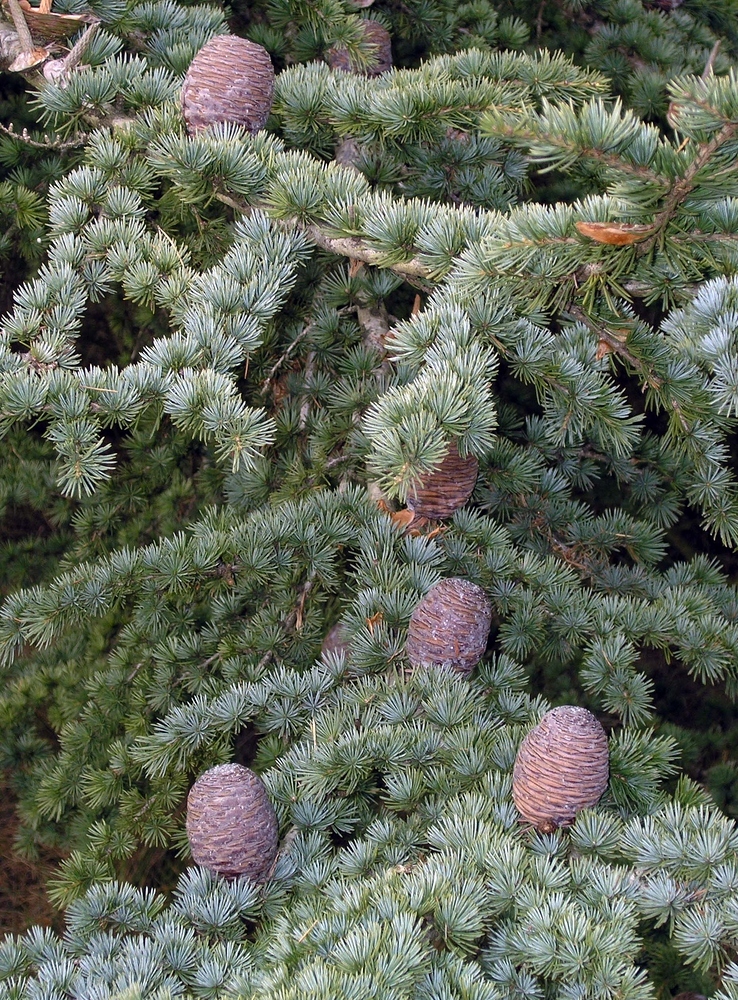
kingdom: Plantae
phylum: Tracheophyta
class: Pinopsida
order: Pinales
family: Pinaceae
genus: Cedrus
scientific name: Cedrus atlantica
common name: Atlas cedar
